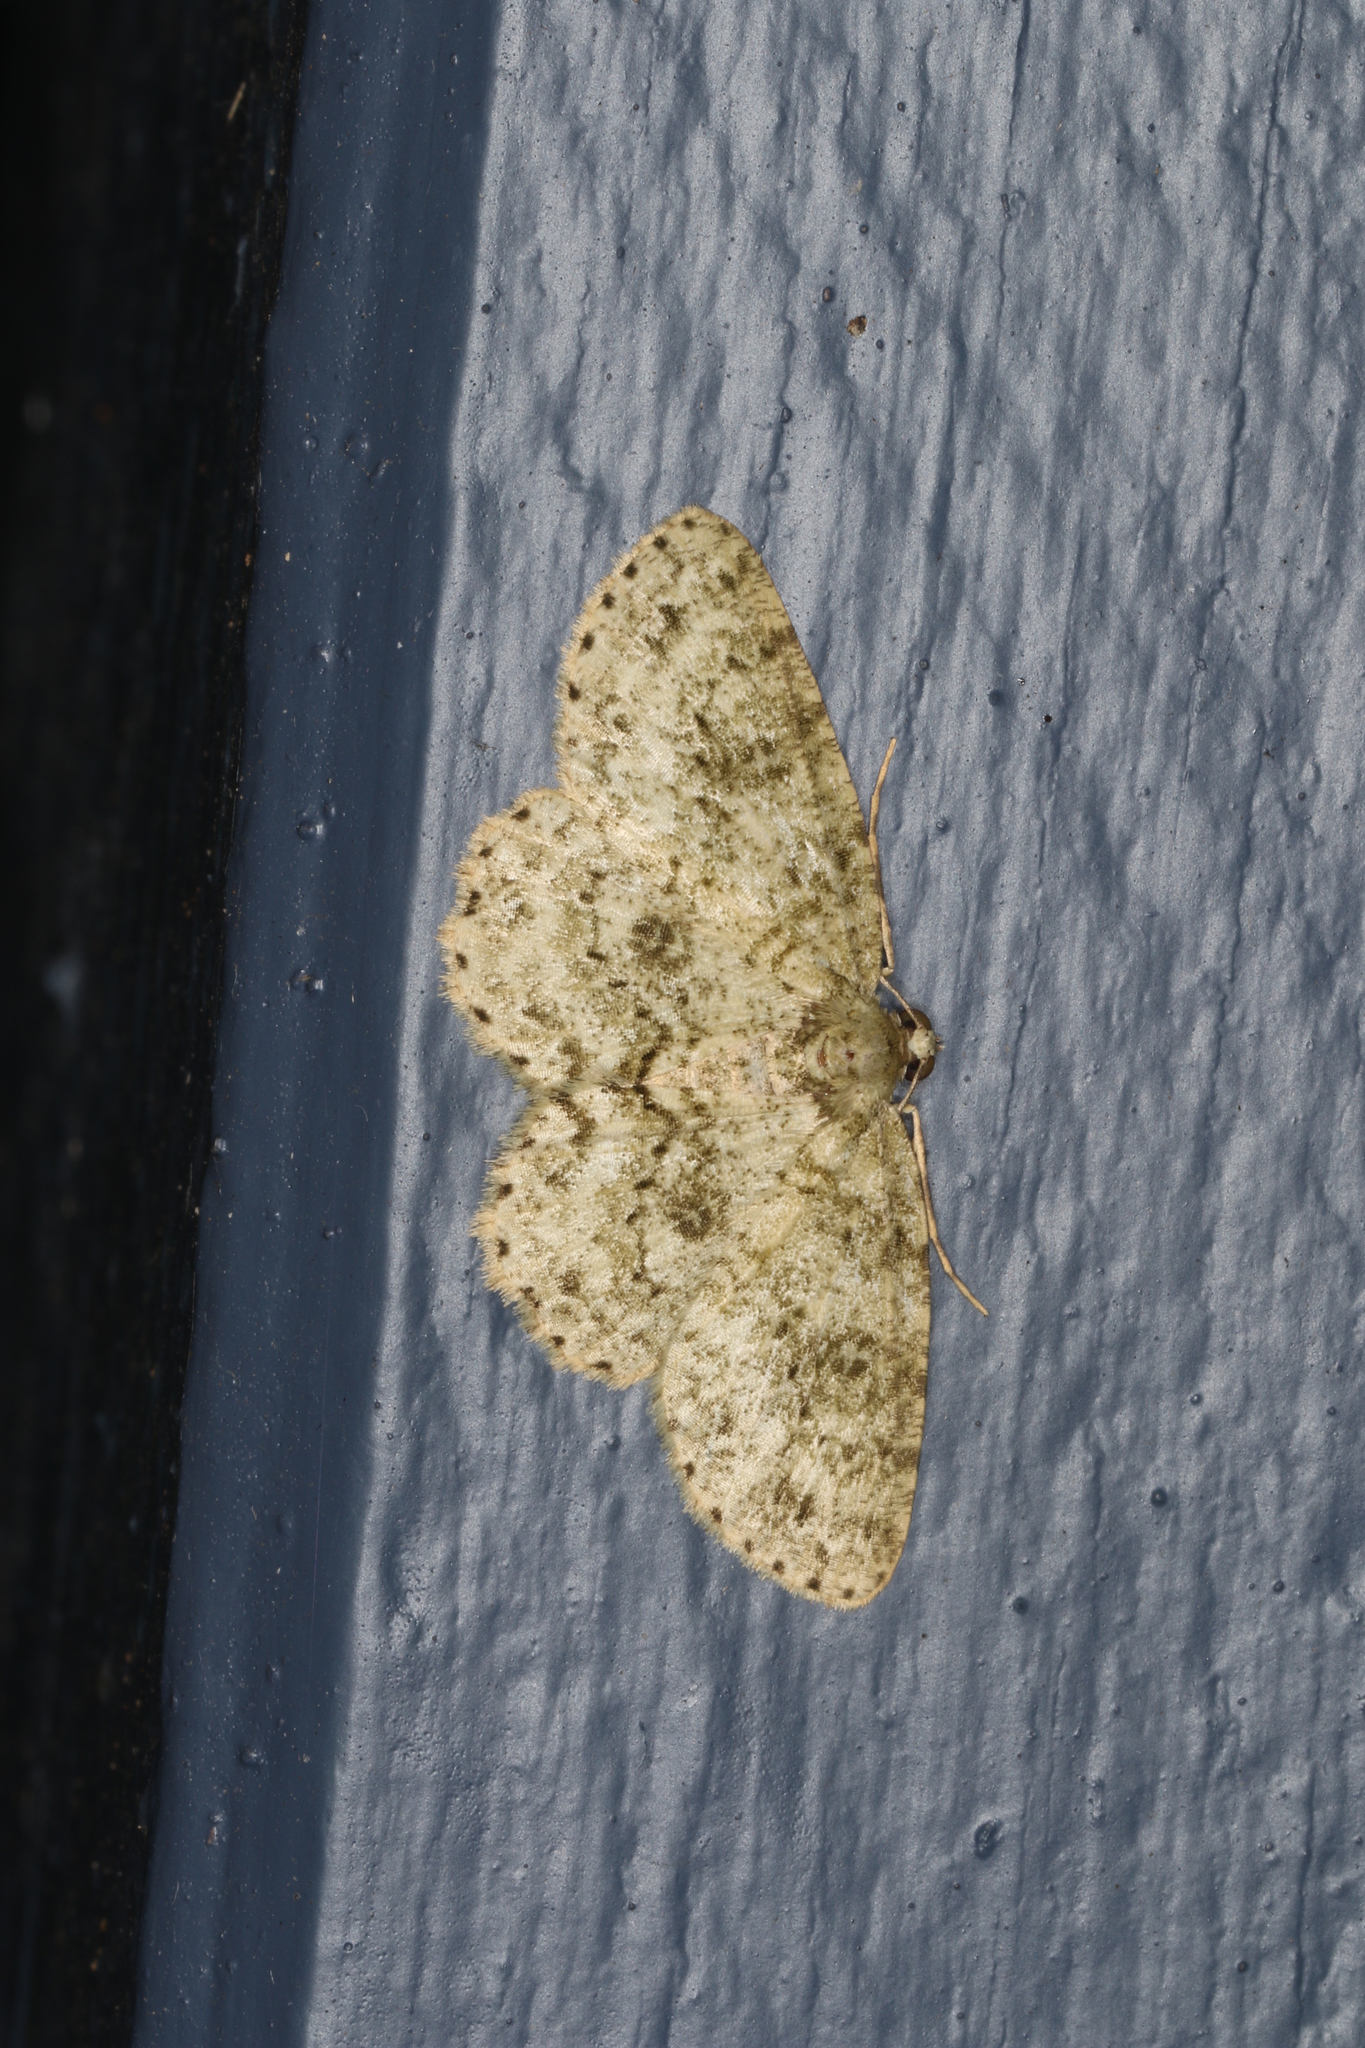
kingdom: Animalia
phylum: Arthropoda
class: Insecta
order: Lepidoptera
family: Geometridae
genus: Ectropis
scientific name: Ectropis mniara
